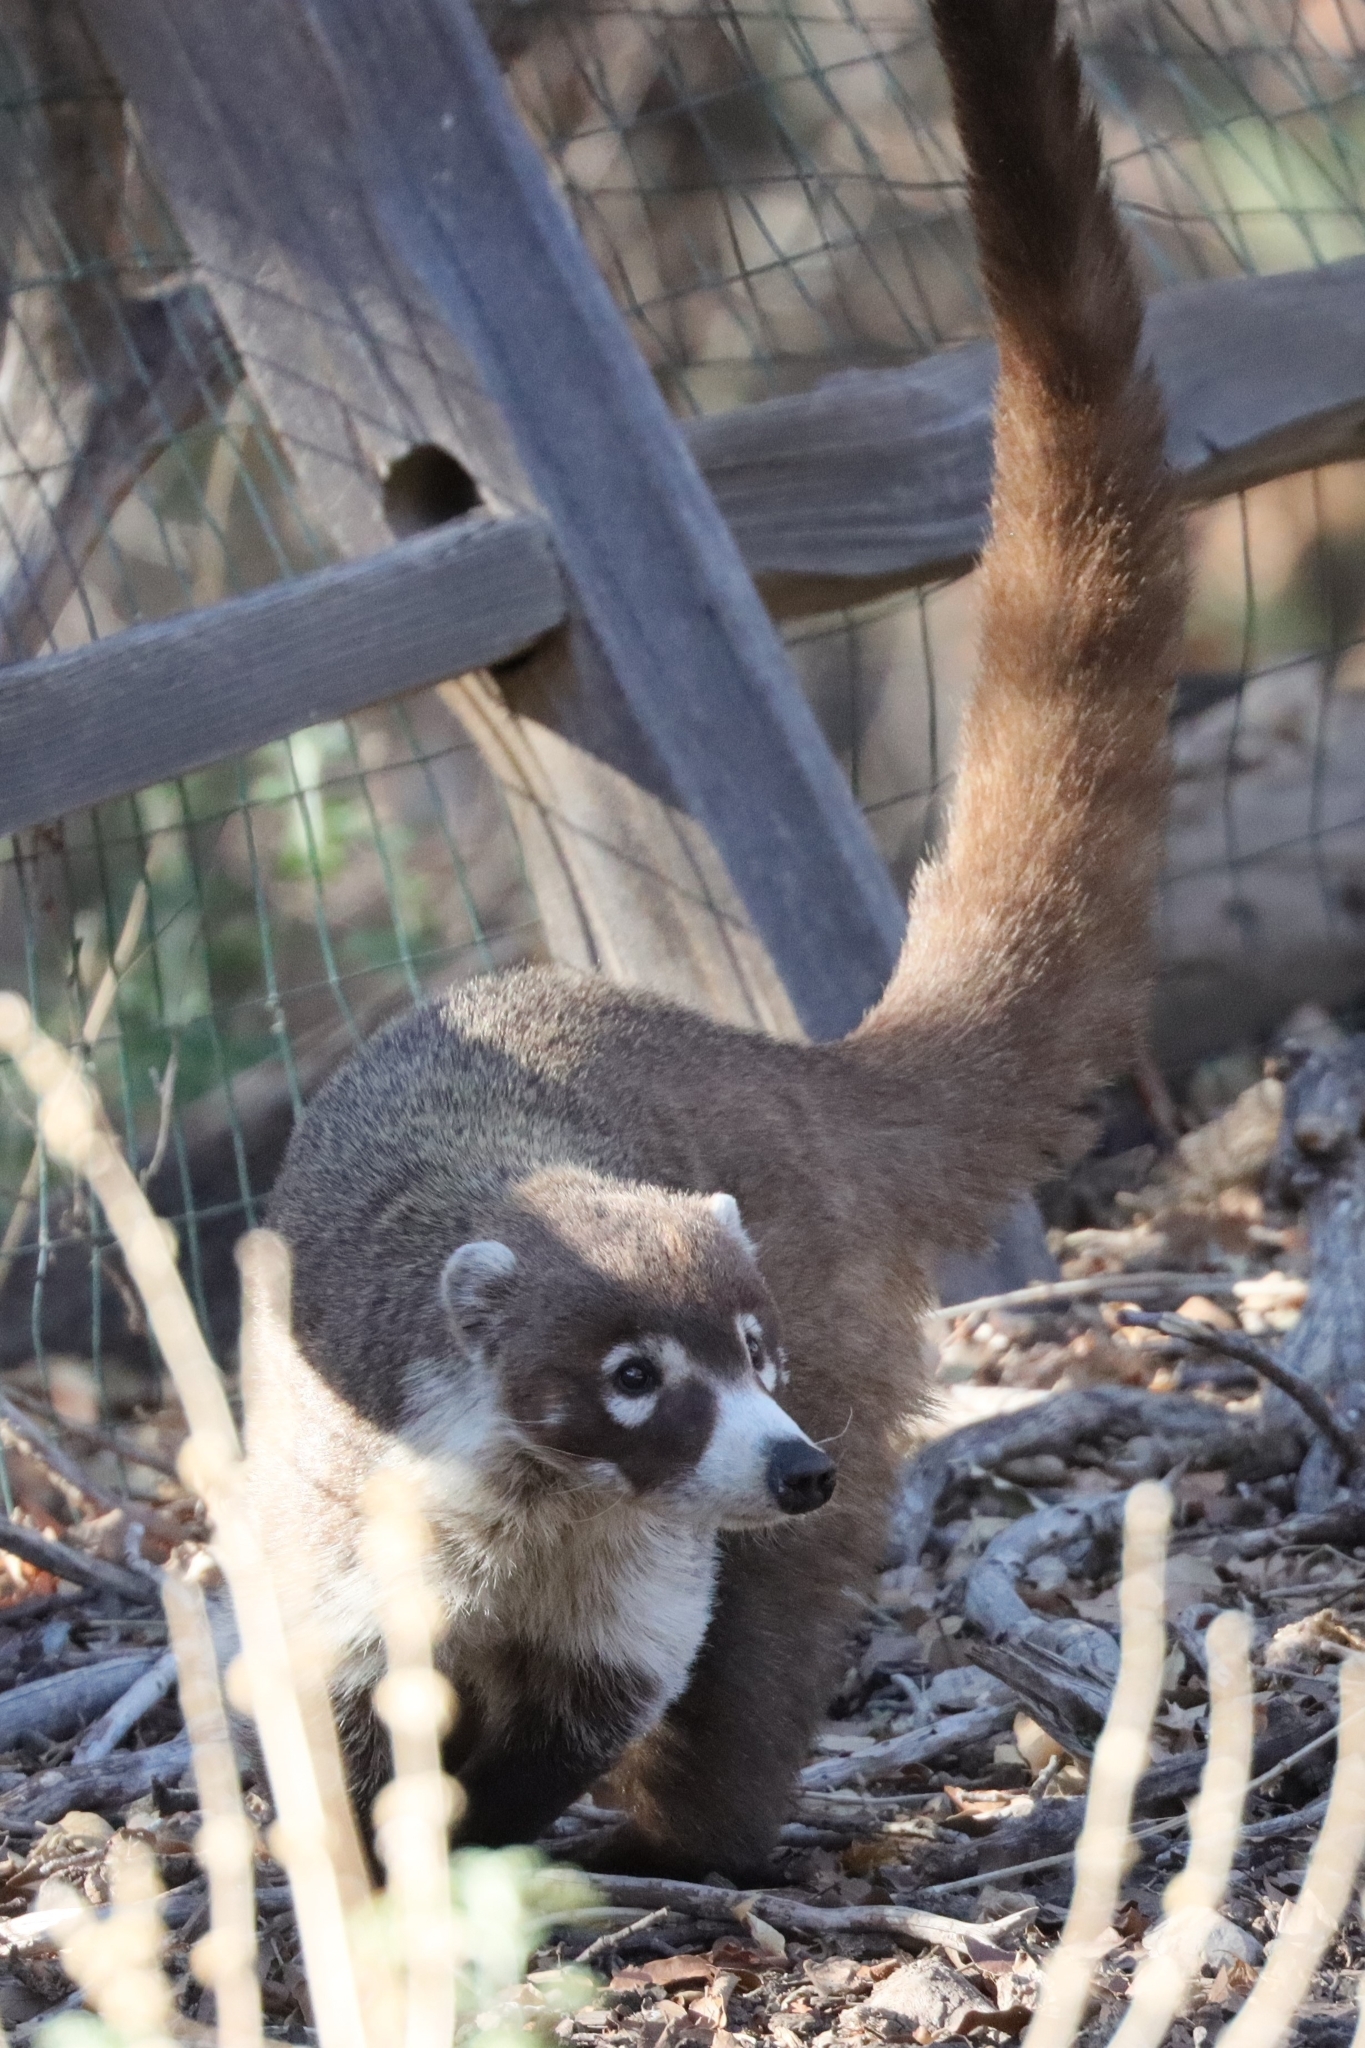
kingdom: Animalia
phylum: Chordata
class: Mammalia
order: Carnivora
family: Procyonidae
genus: Nasua
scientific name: Nasua narica
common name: White-nosed coati
